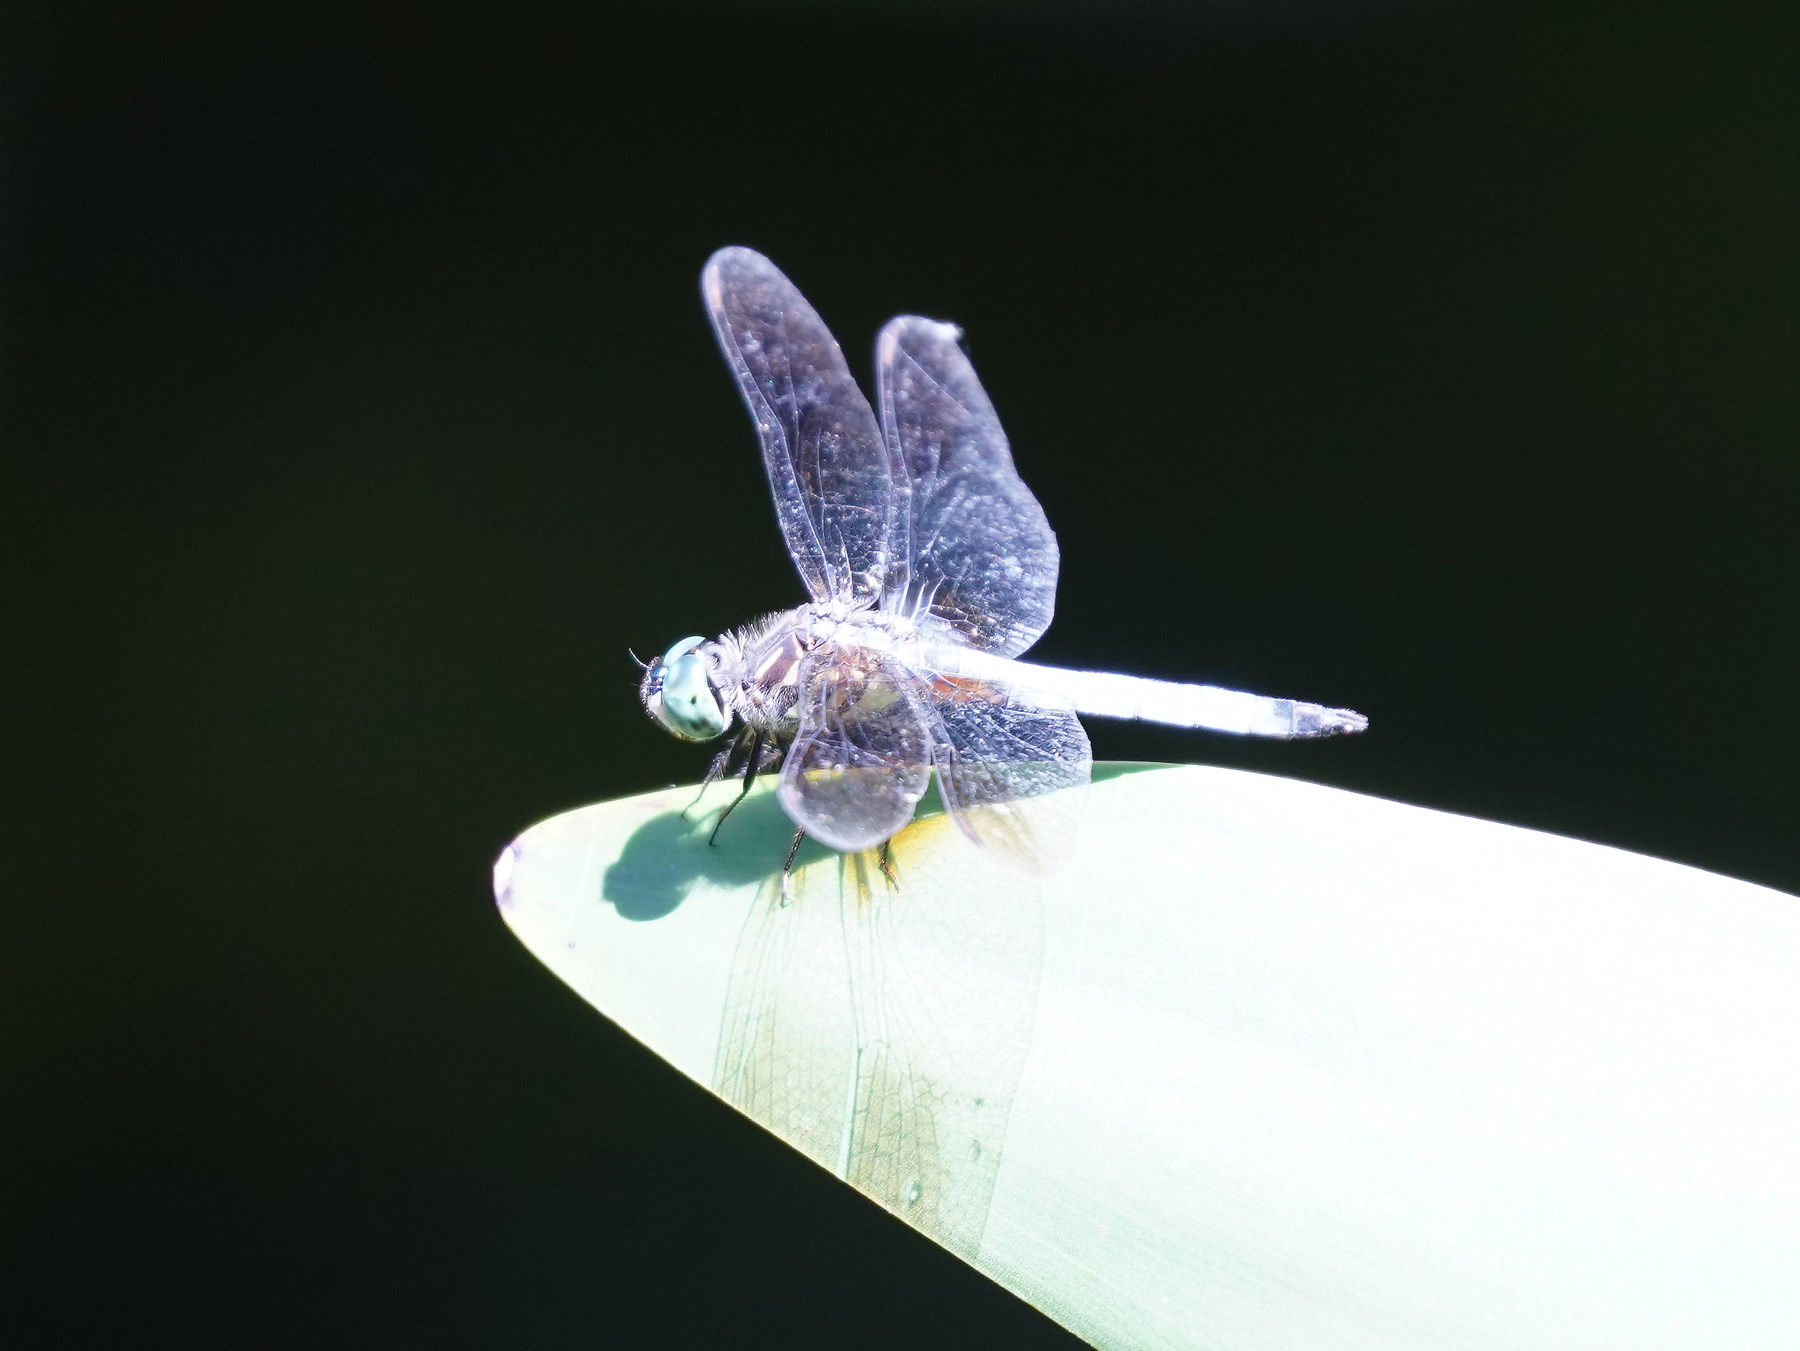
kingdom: Animalia
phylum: Arthropoda
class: Insecta
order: Odonata
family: Libellulidae
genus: Pachydiplax
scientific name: Pachydiplax longipennis
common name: Blue dasher
